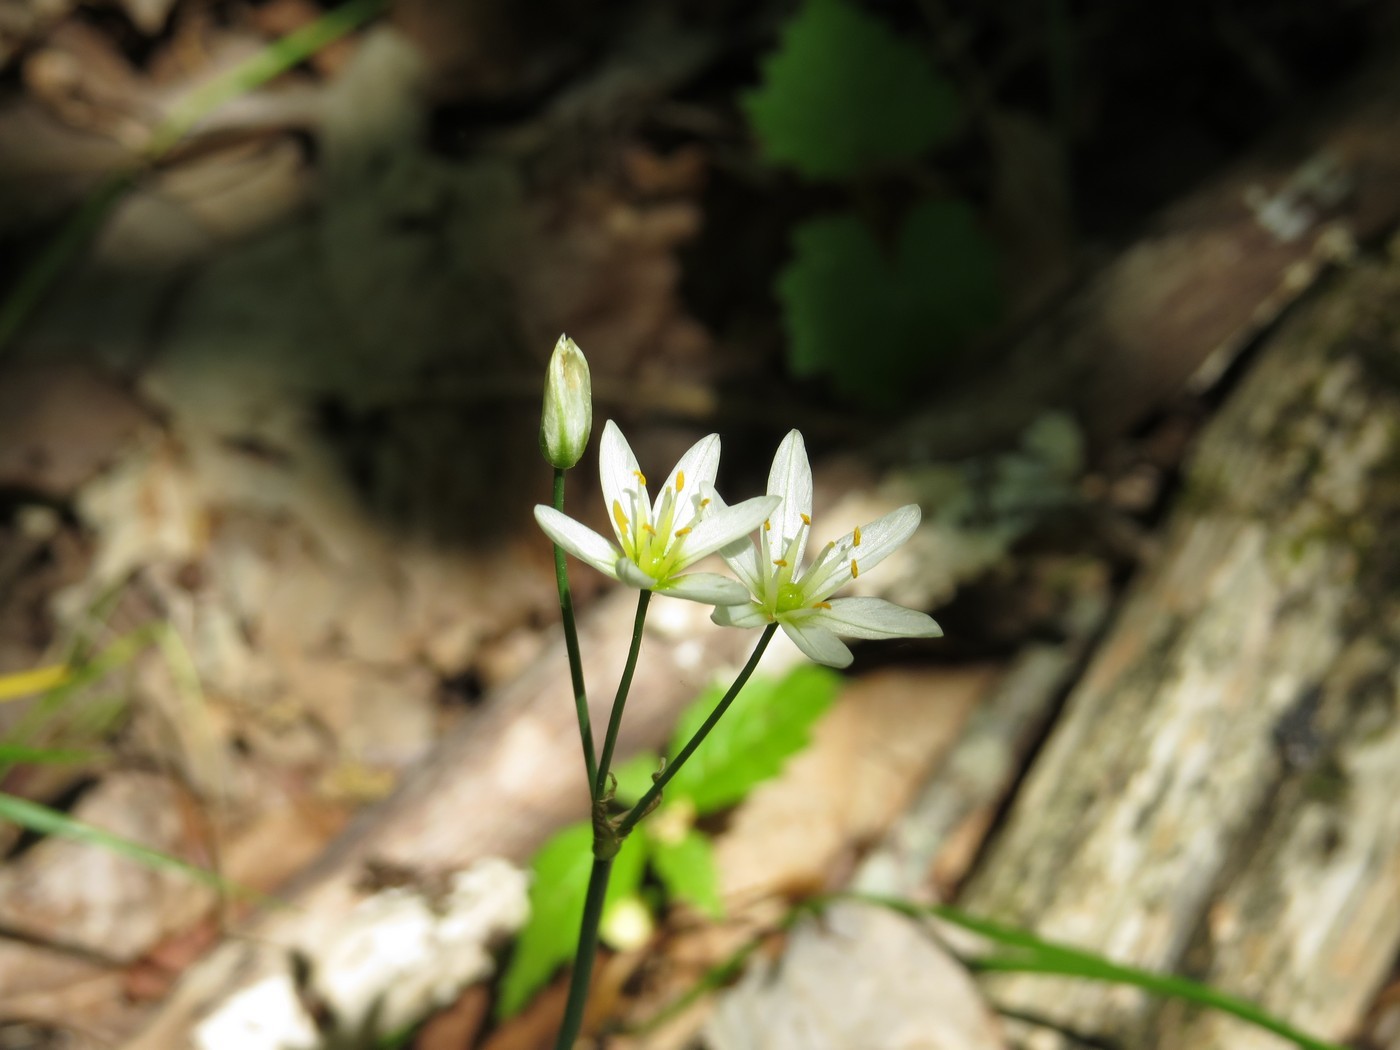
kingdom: Plantae
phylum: Tracheophyta
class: Liliopsida
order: Asparagales
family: Amaryllidaceae
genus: Nothoscordum
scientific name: Nothoscordum bivalve
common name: Crow-poison
